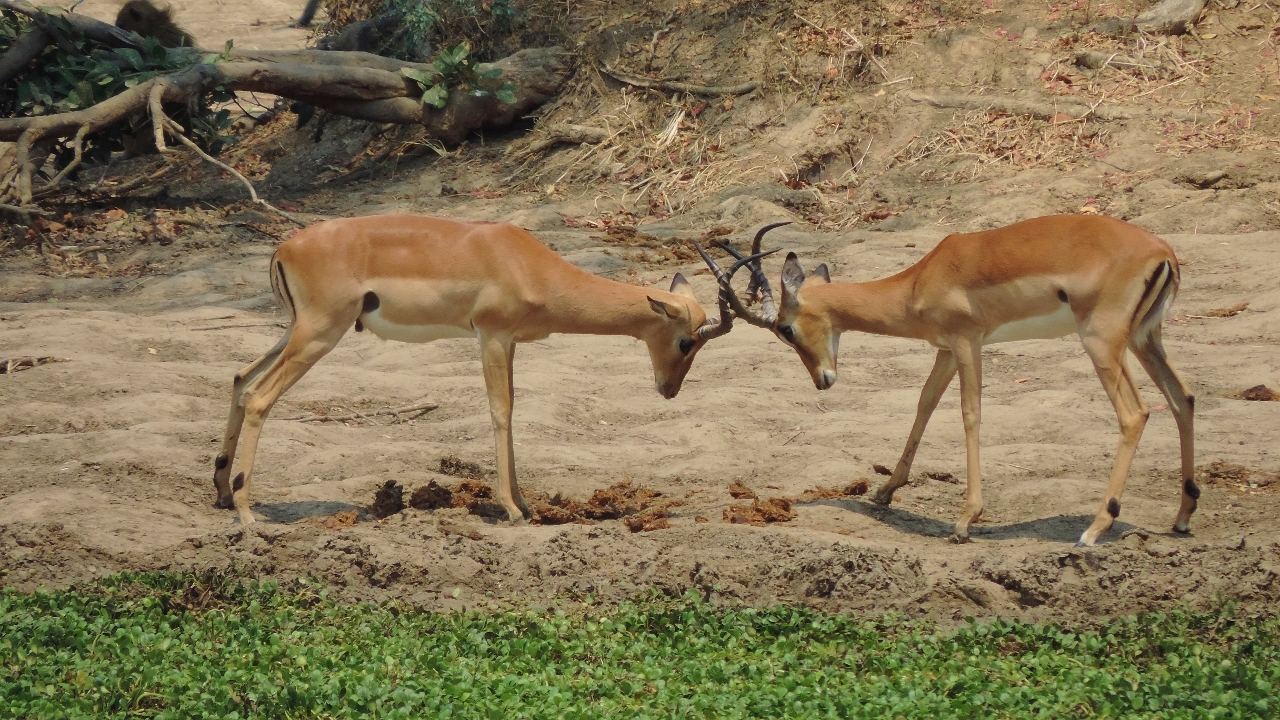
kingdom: Animalia
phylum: Chordata
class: Mammalia
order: Artiodactyla
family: Bovidae
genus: Aepyceros
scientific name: Aepyceros melampus
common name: Impala
